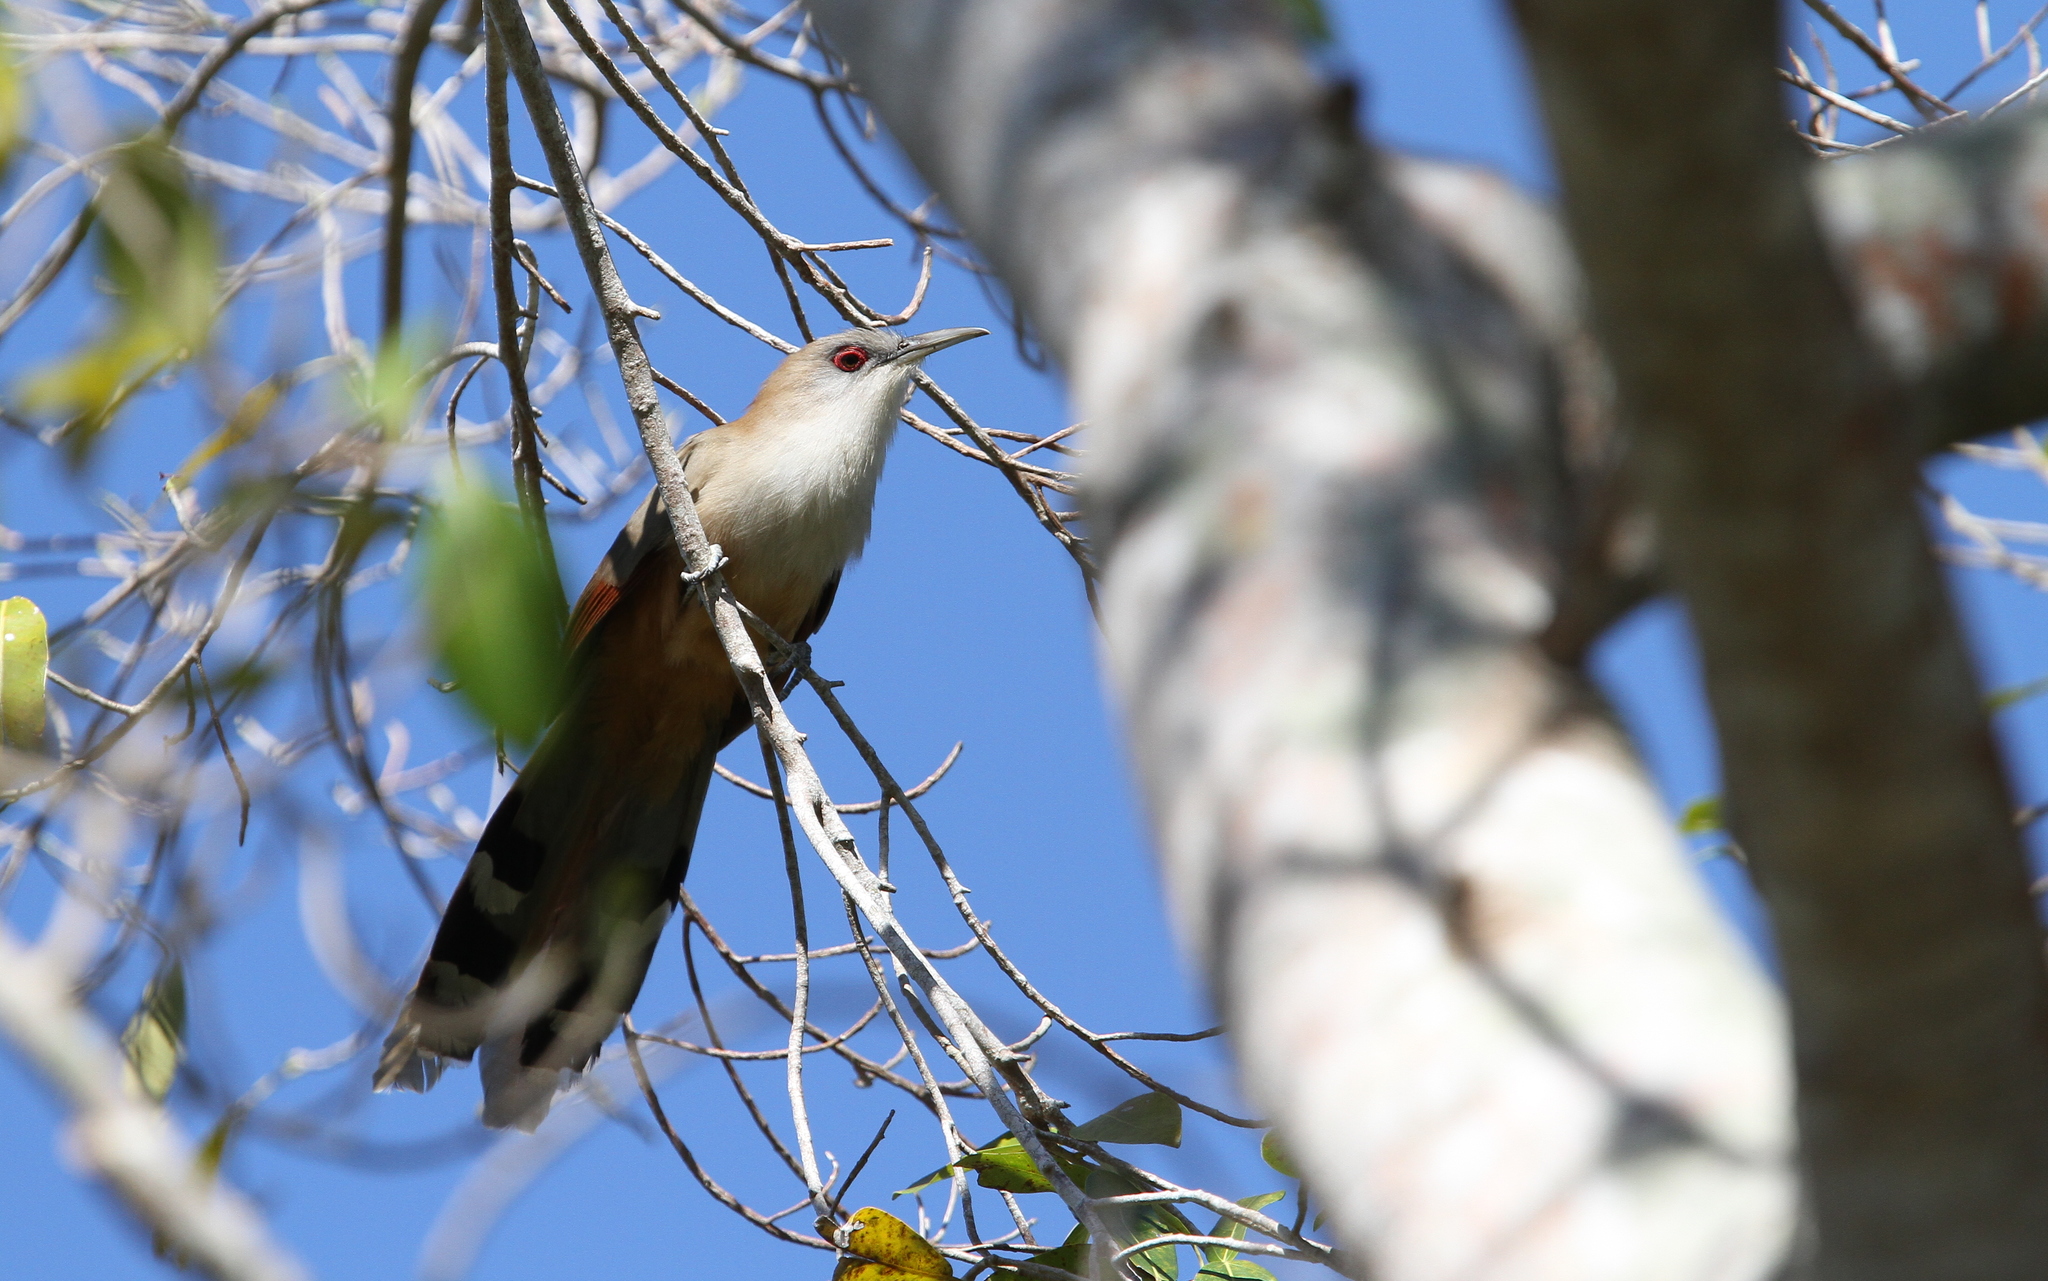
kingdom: Animalia
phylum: Chordata
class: Aves
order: Cuculiformes
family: Cuculidae
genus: Saurothera
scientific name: Saurothera merlini
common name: Great lizard-cuckoo
